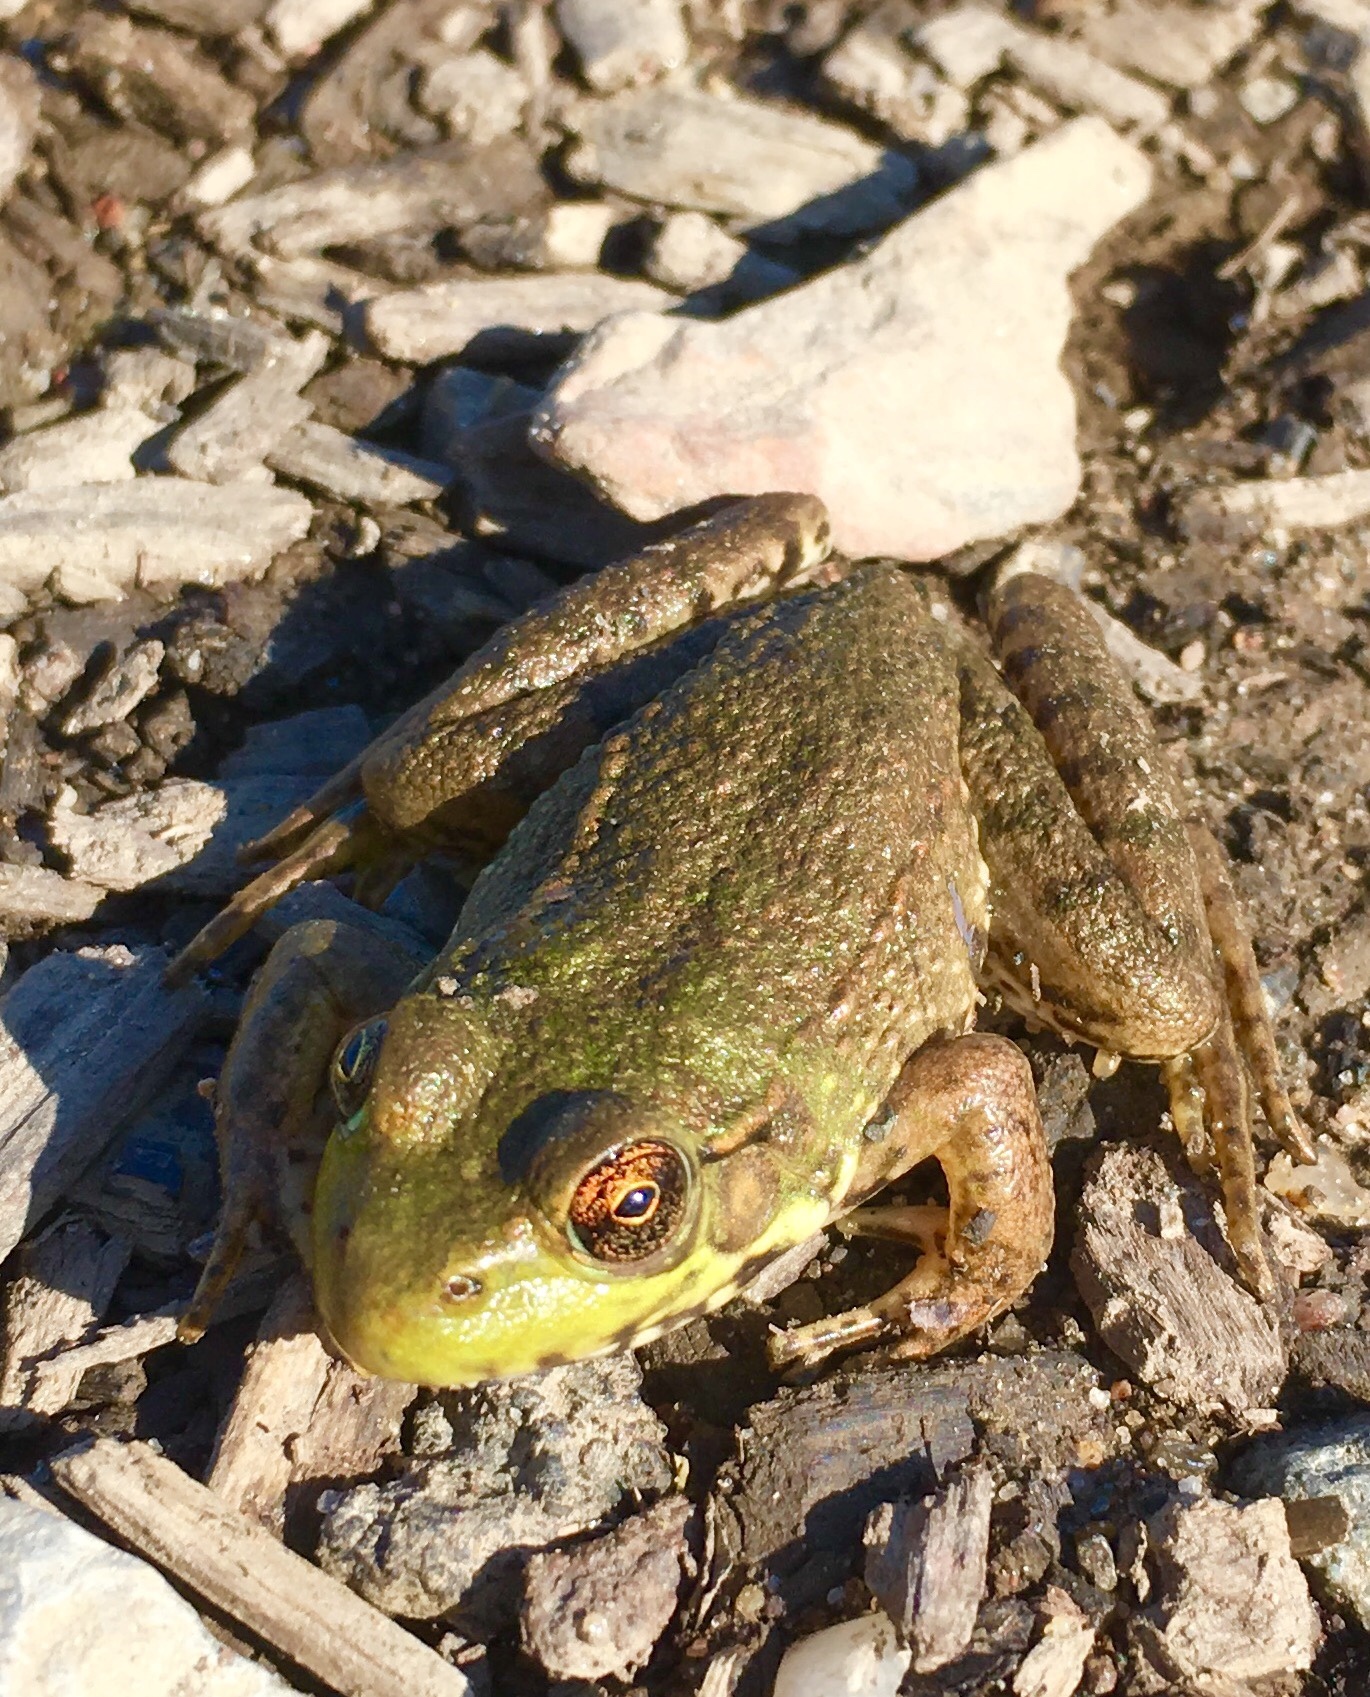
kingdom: Animalia
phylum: Chordata
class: Amphibia
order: Anura
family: Ranidae
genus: Lithobates
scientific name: Lithobates clamitans
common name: Green frog
